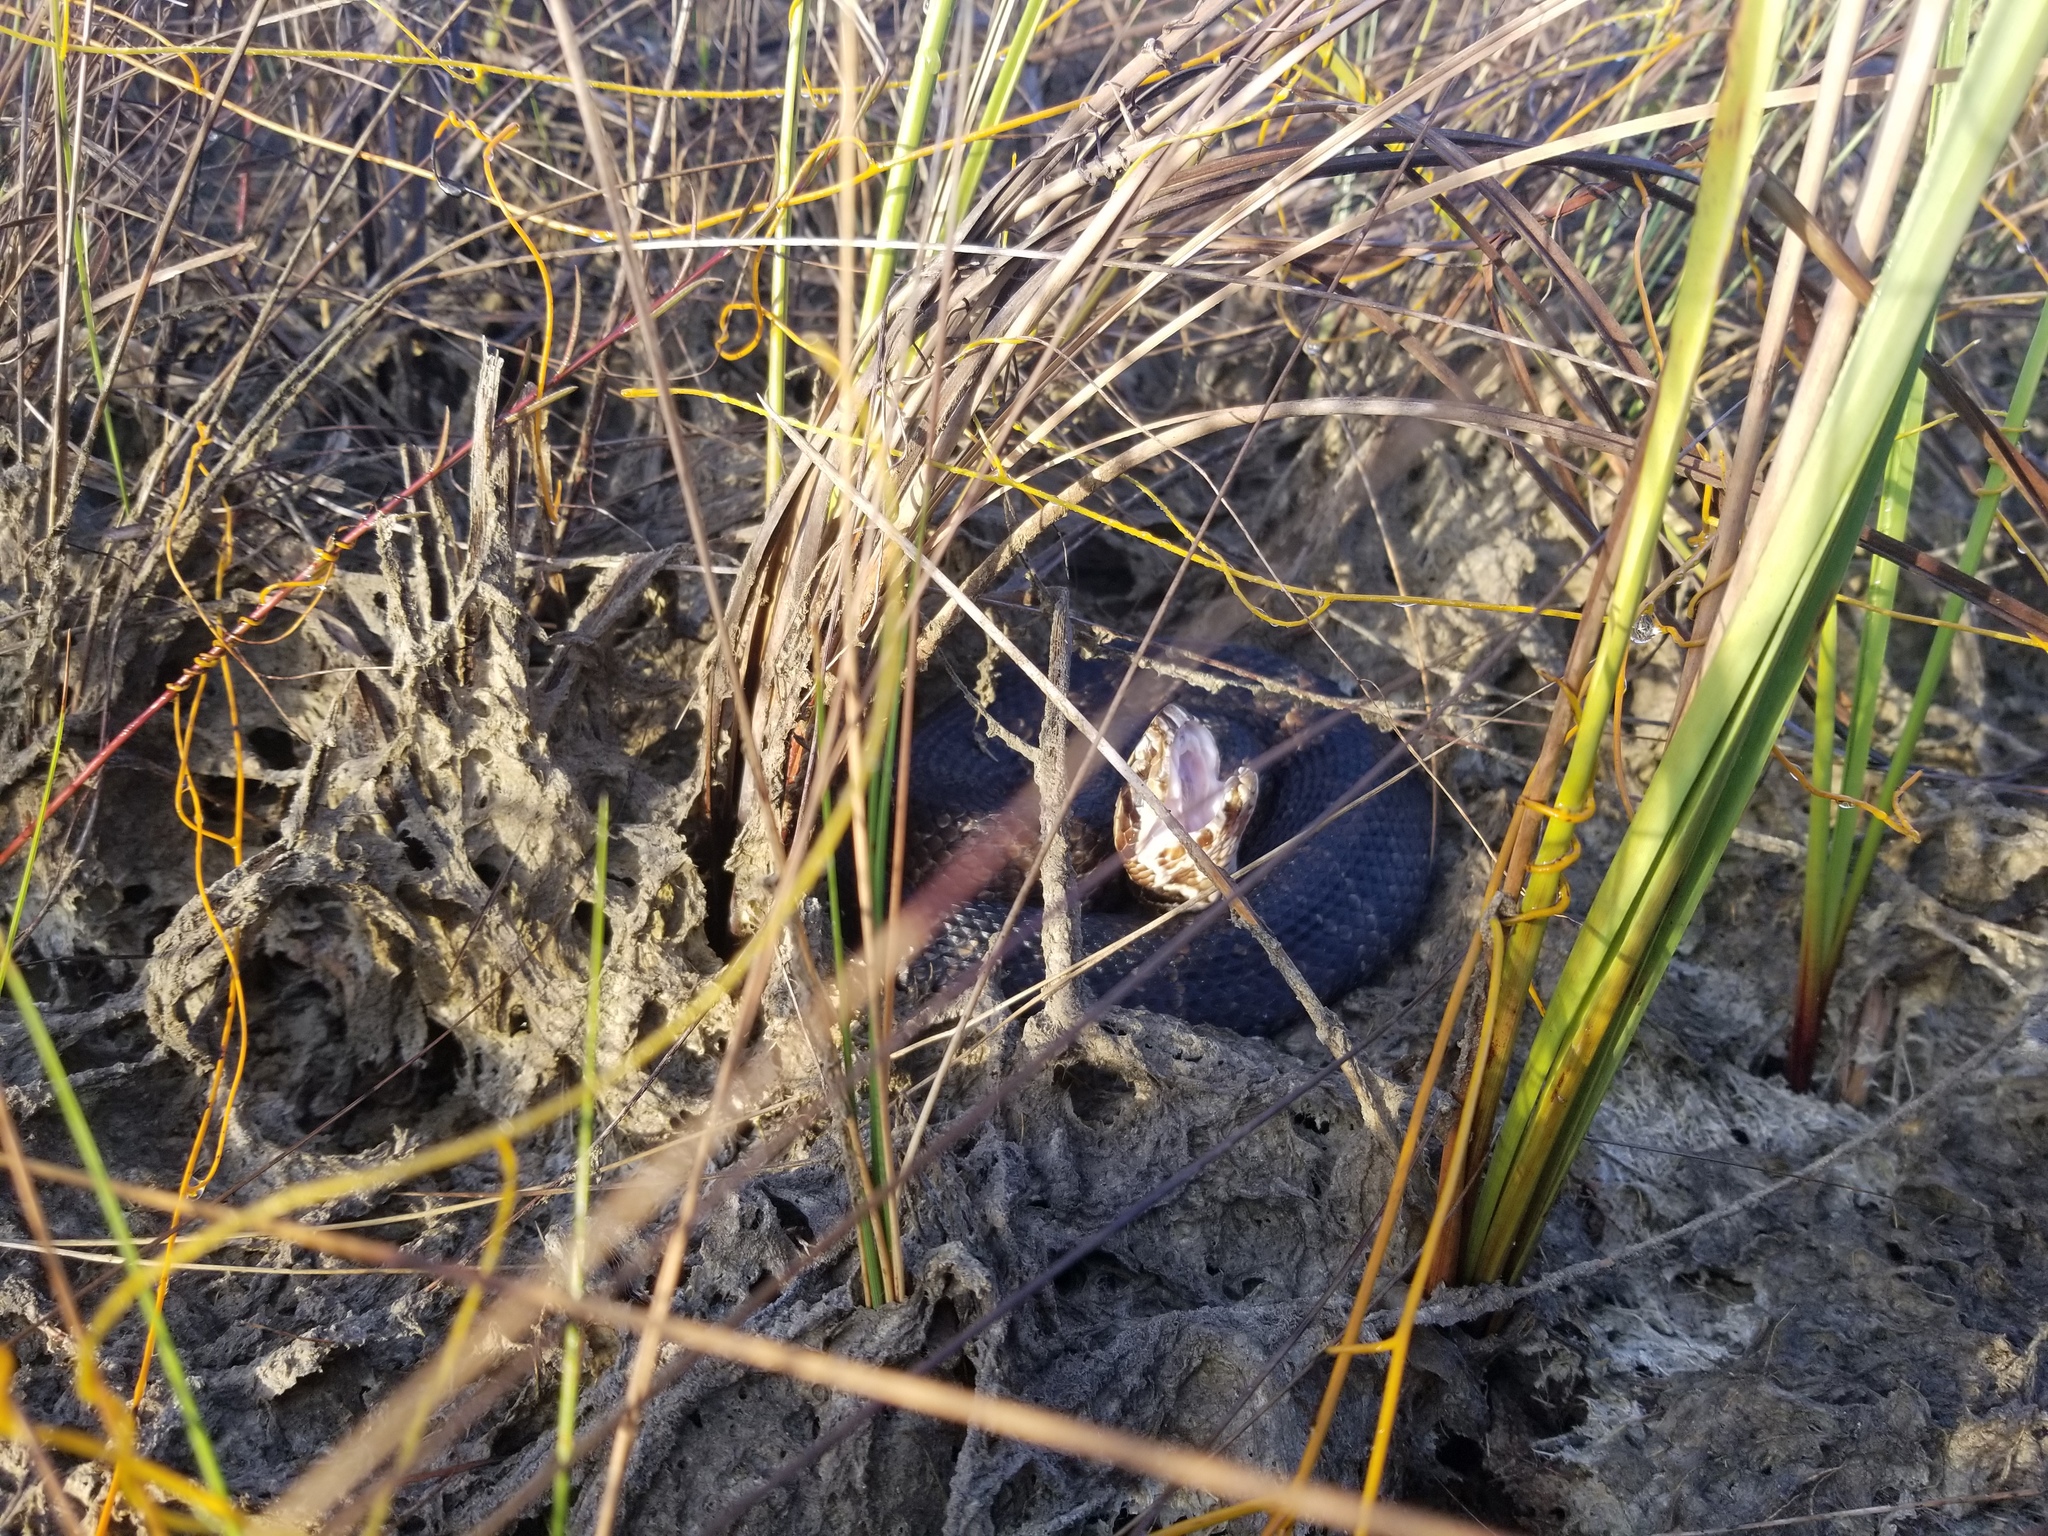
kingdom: Animalia
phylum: Chordata
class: Squamata
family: Viperidae
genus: Agkistrodon
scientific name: Agkistrodon conanti
